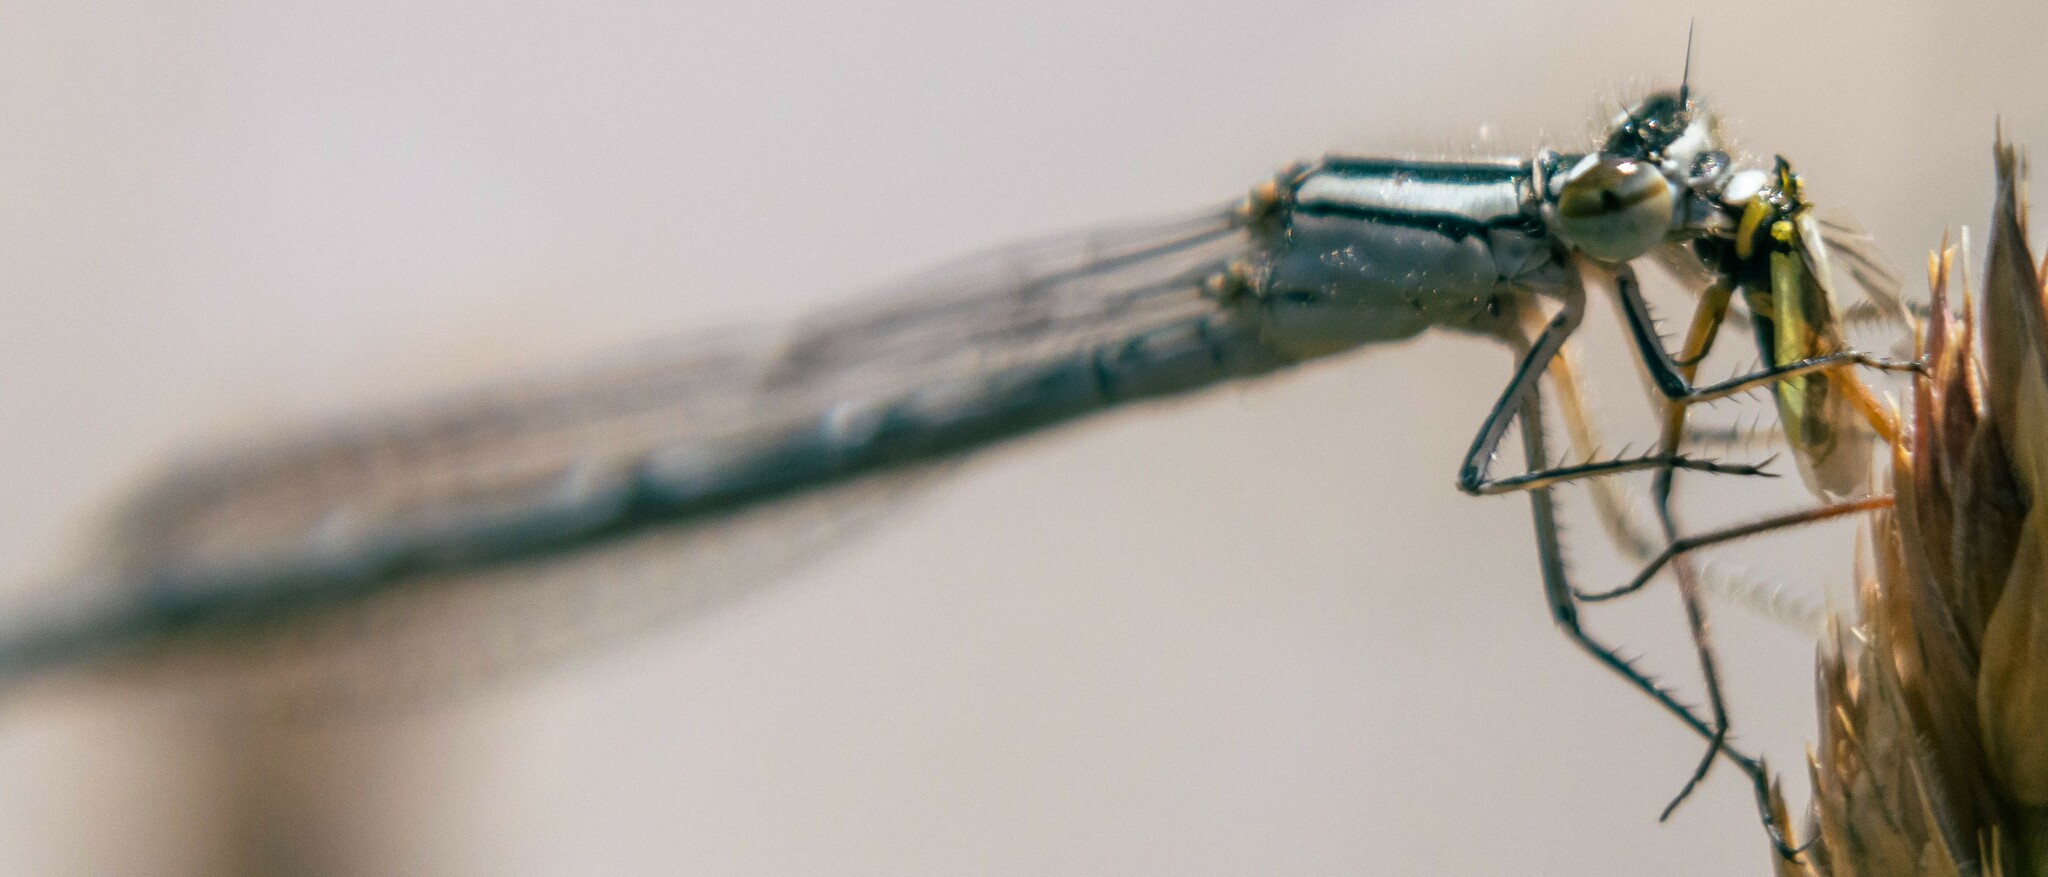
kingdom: Animalia
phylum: Arthropoda
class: Insecta
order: Odonata
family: Coenagrionidae
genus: Enallagma
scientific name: Enallagma cyathigerum
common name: Common blue damselfly
